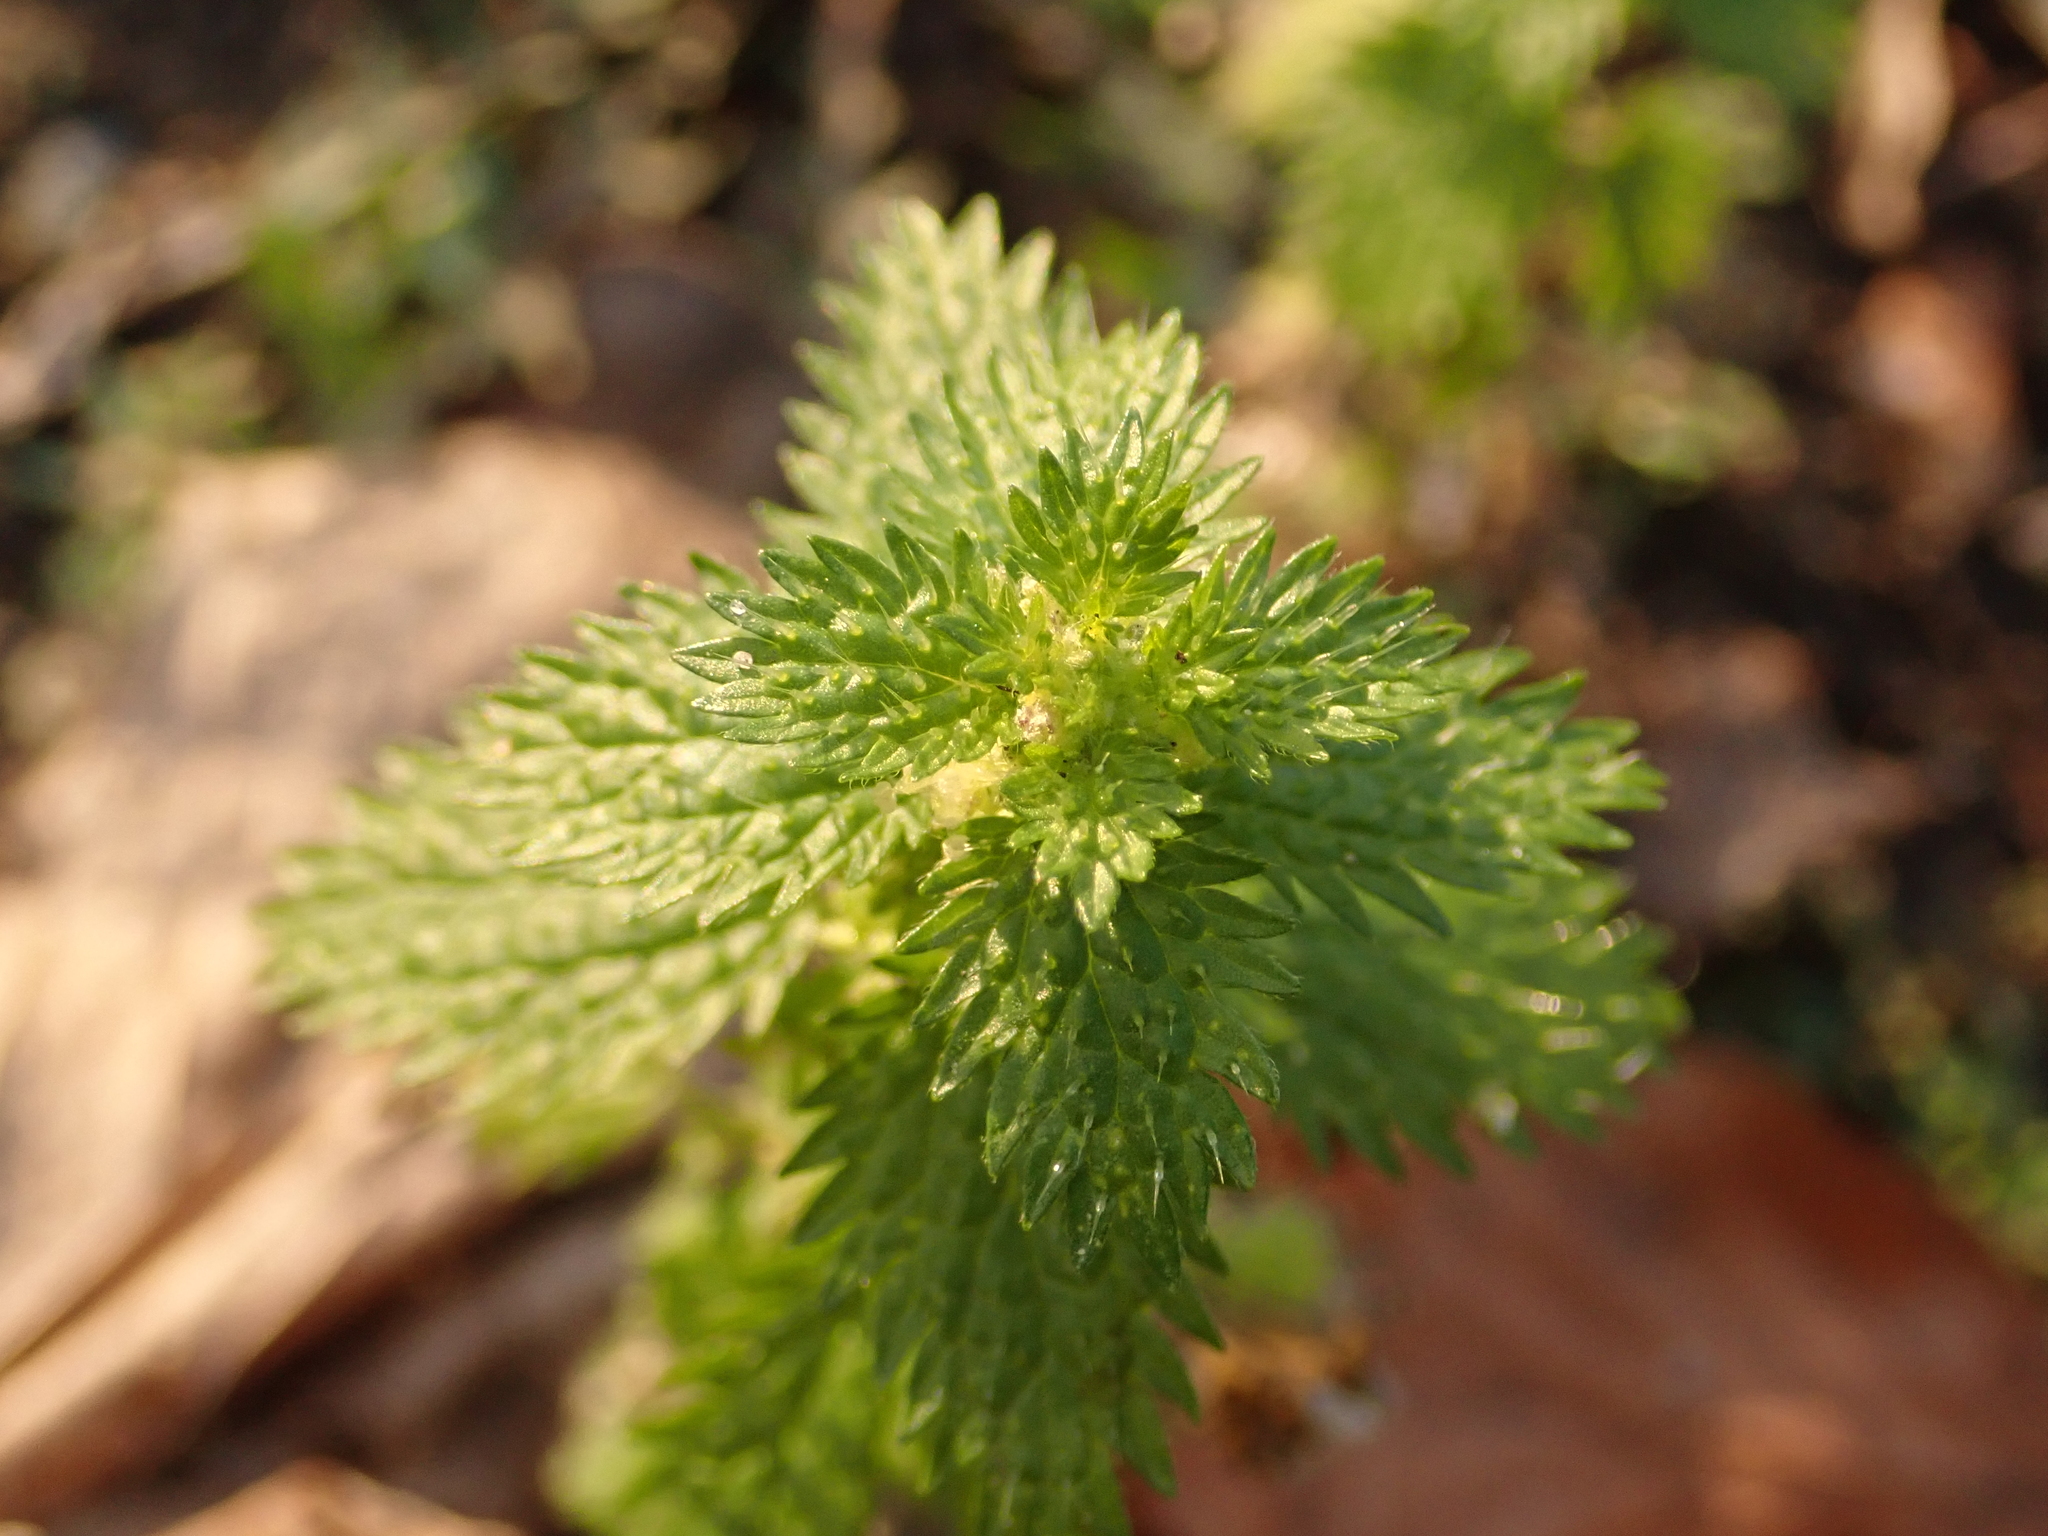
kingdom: Plantae
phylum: Tracheophyta
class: Magnoliopsida
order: Rosales
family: Urticaceae
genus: Urtica
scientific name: Urtica urens
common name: Dwarf nettle
